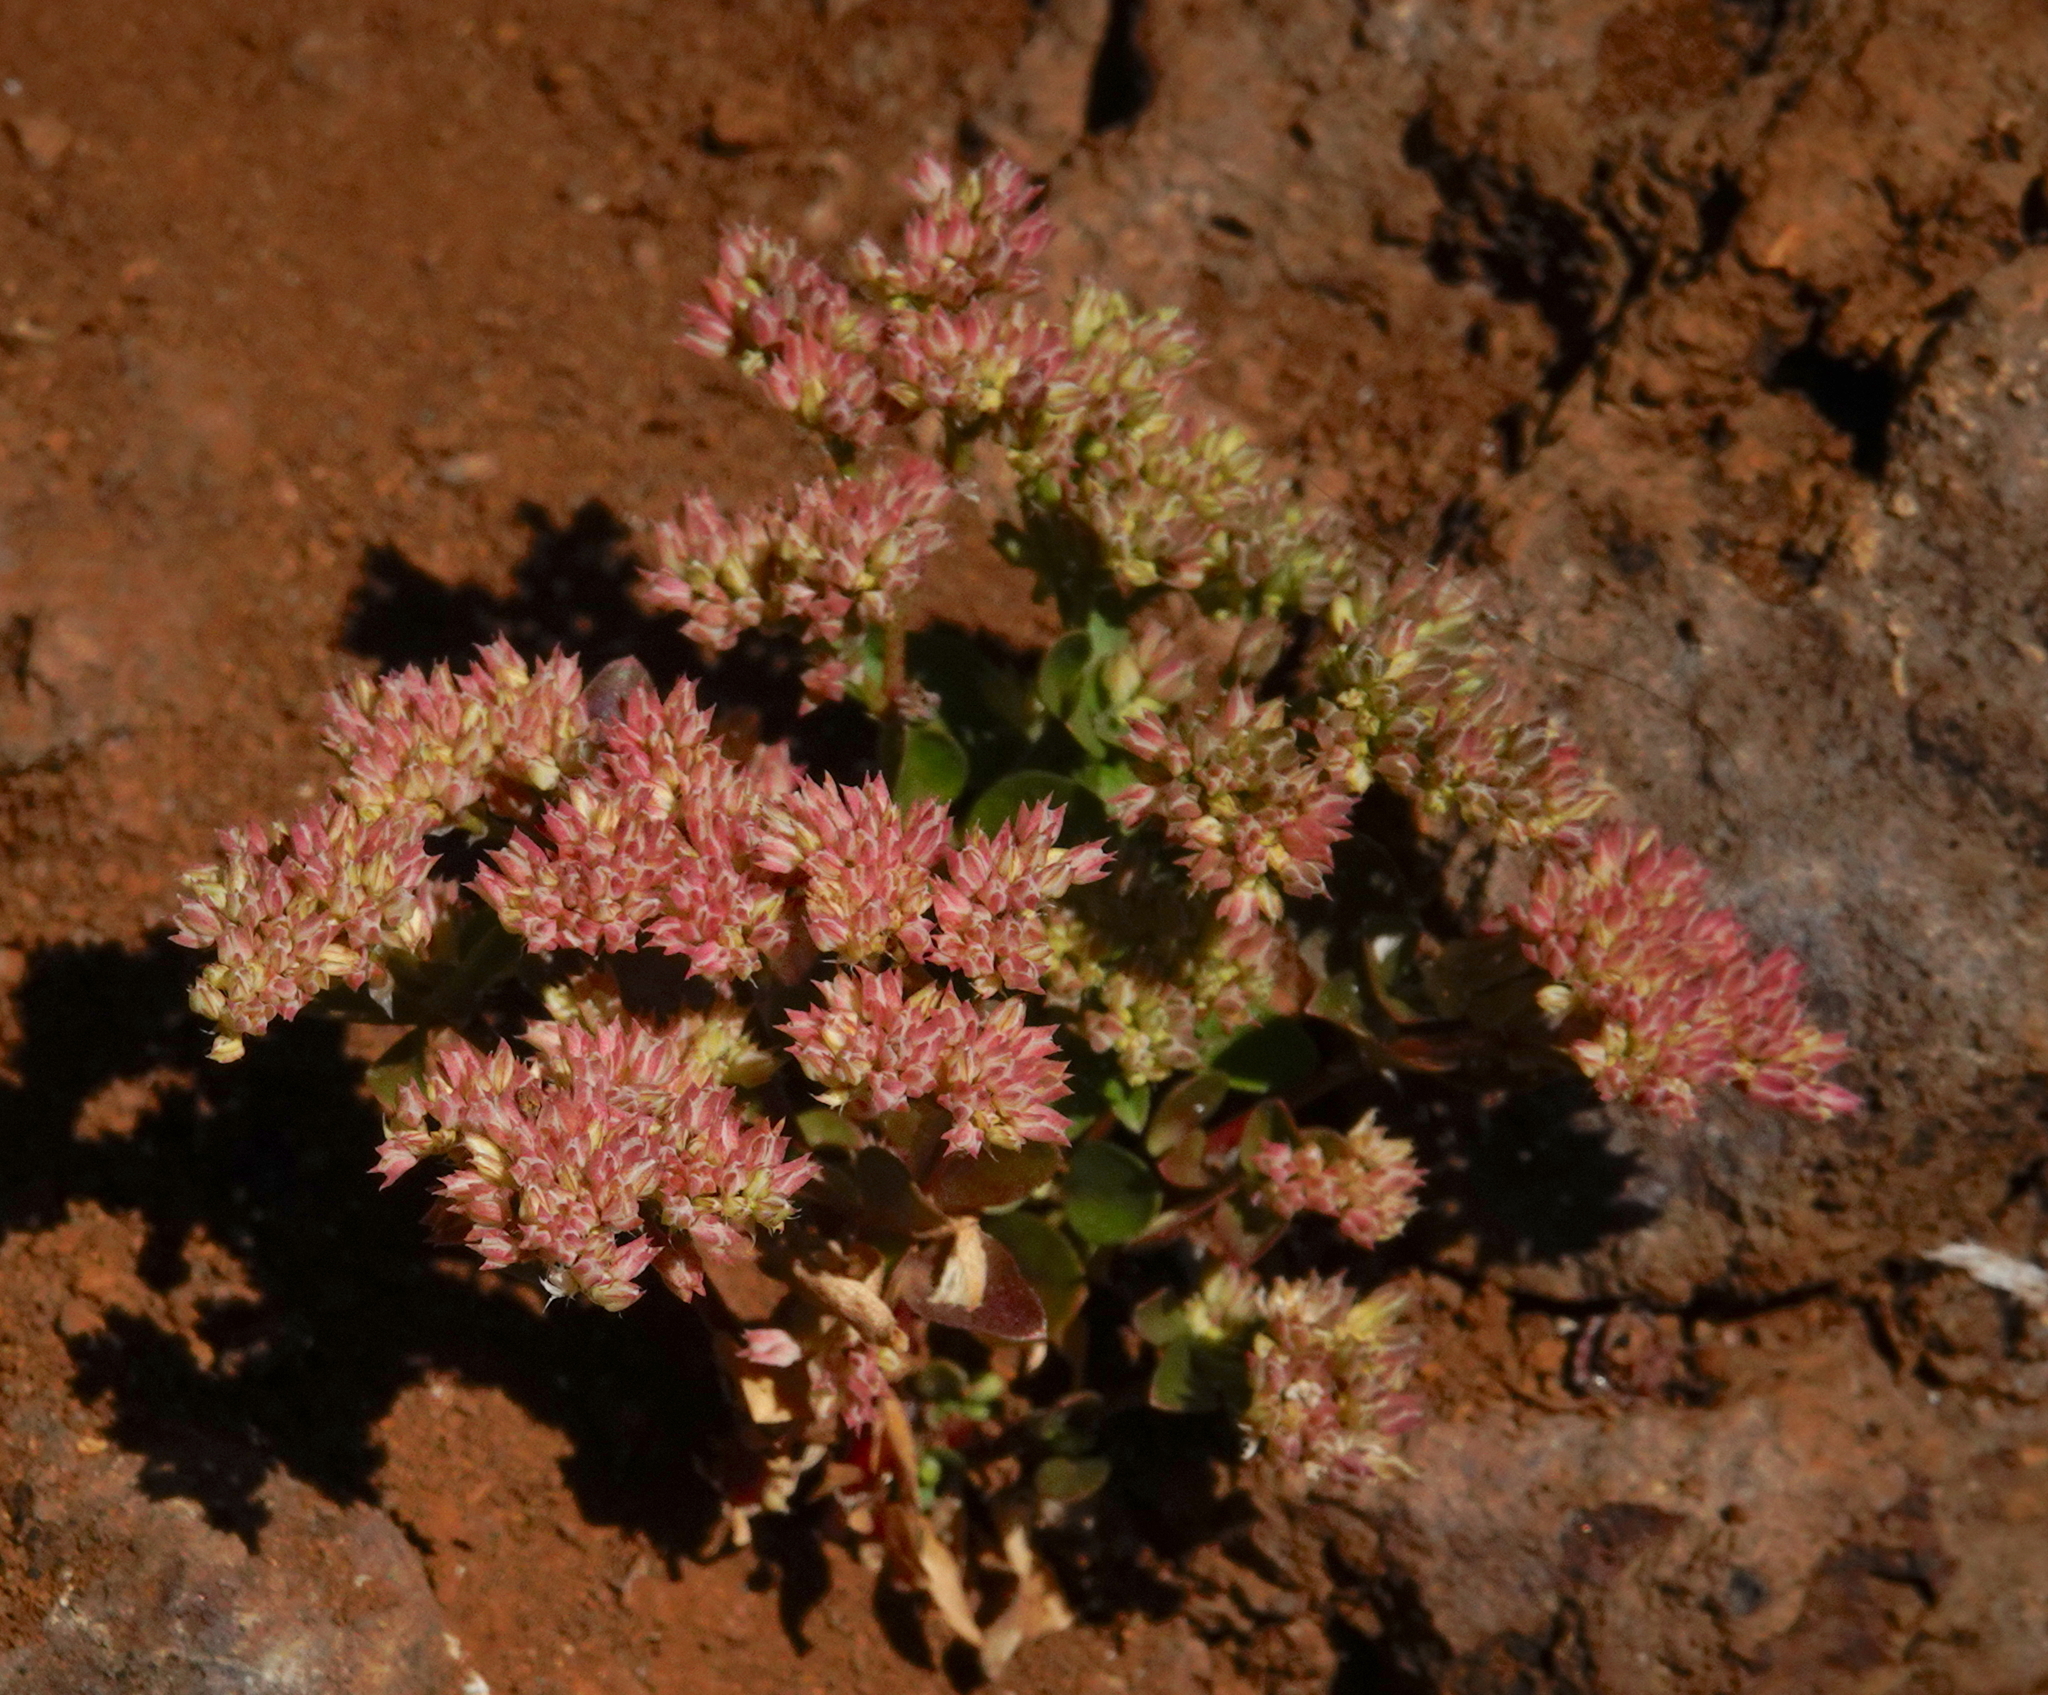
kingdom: Plantae
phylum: Tracheophyta
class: Magnoliopsida
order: Caryophyllales
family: Caryophyllaceae
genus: Polycarpon
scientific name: Polycarpon tetraphyllum
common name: Four-leaved all-seed
